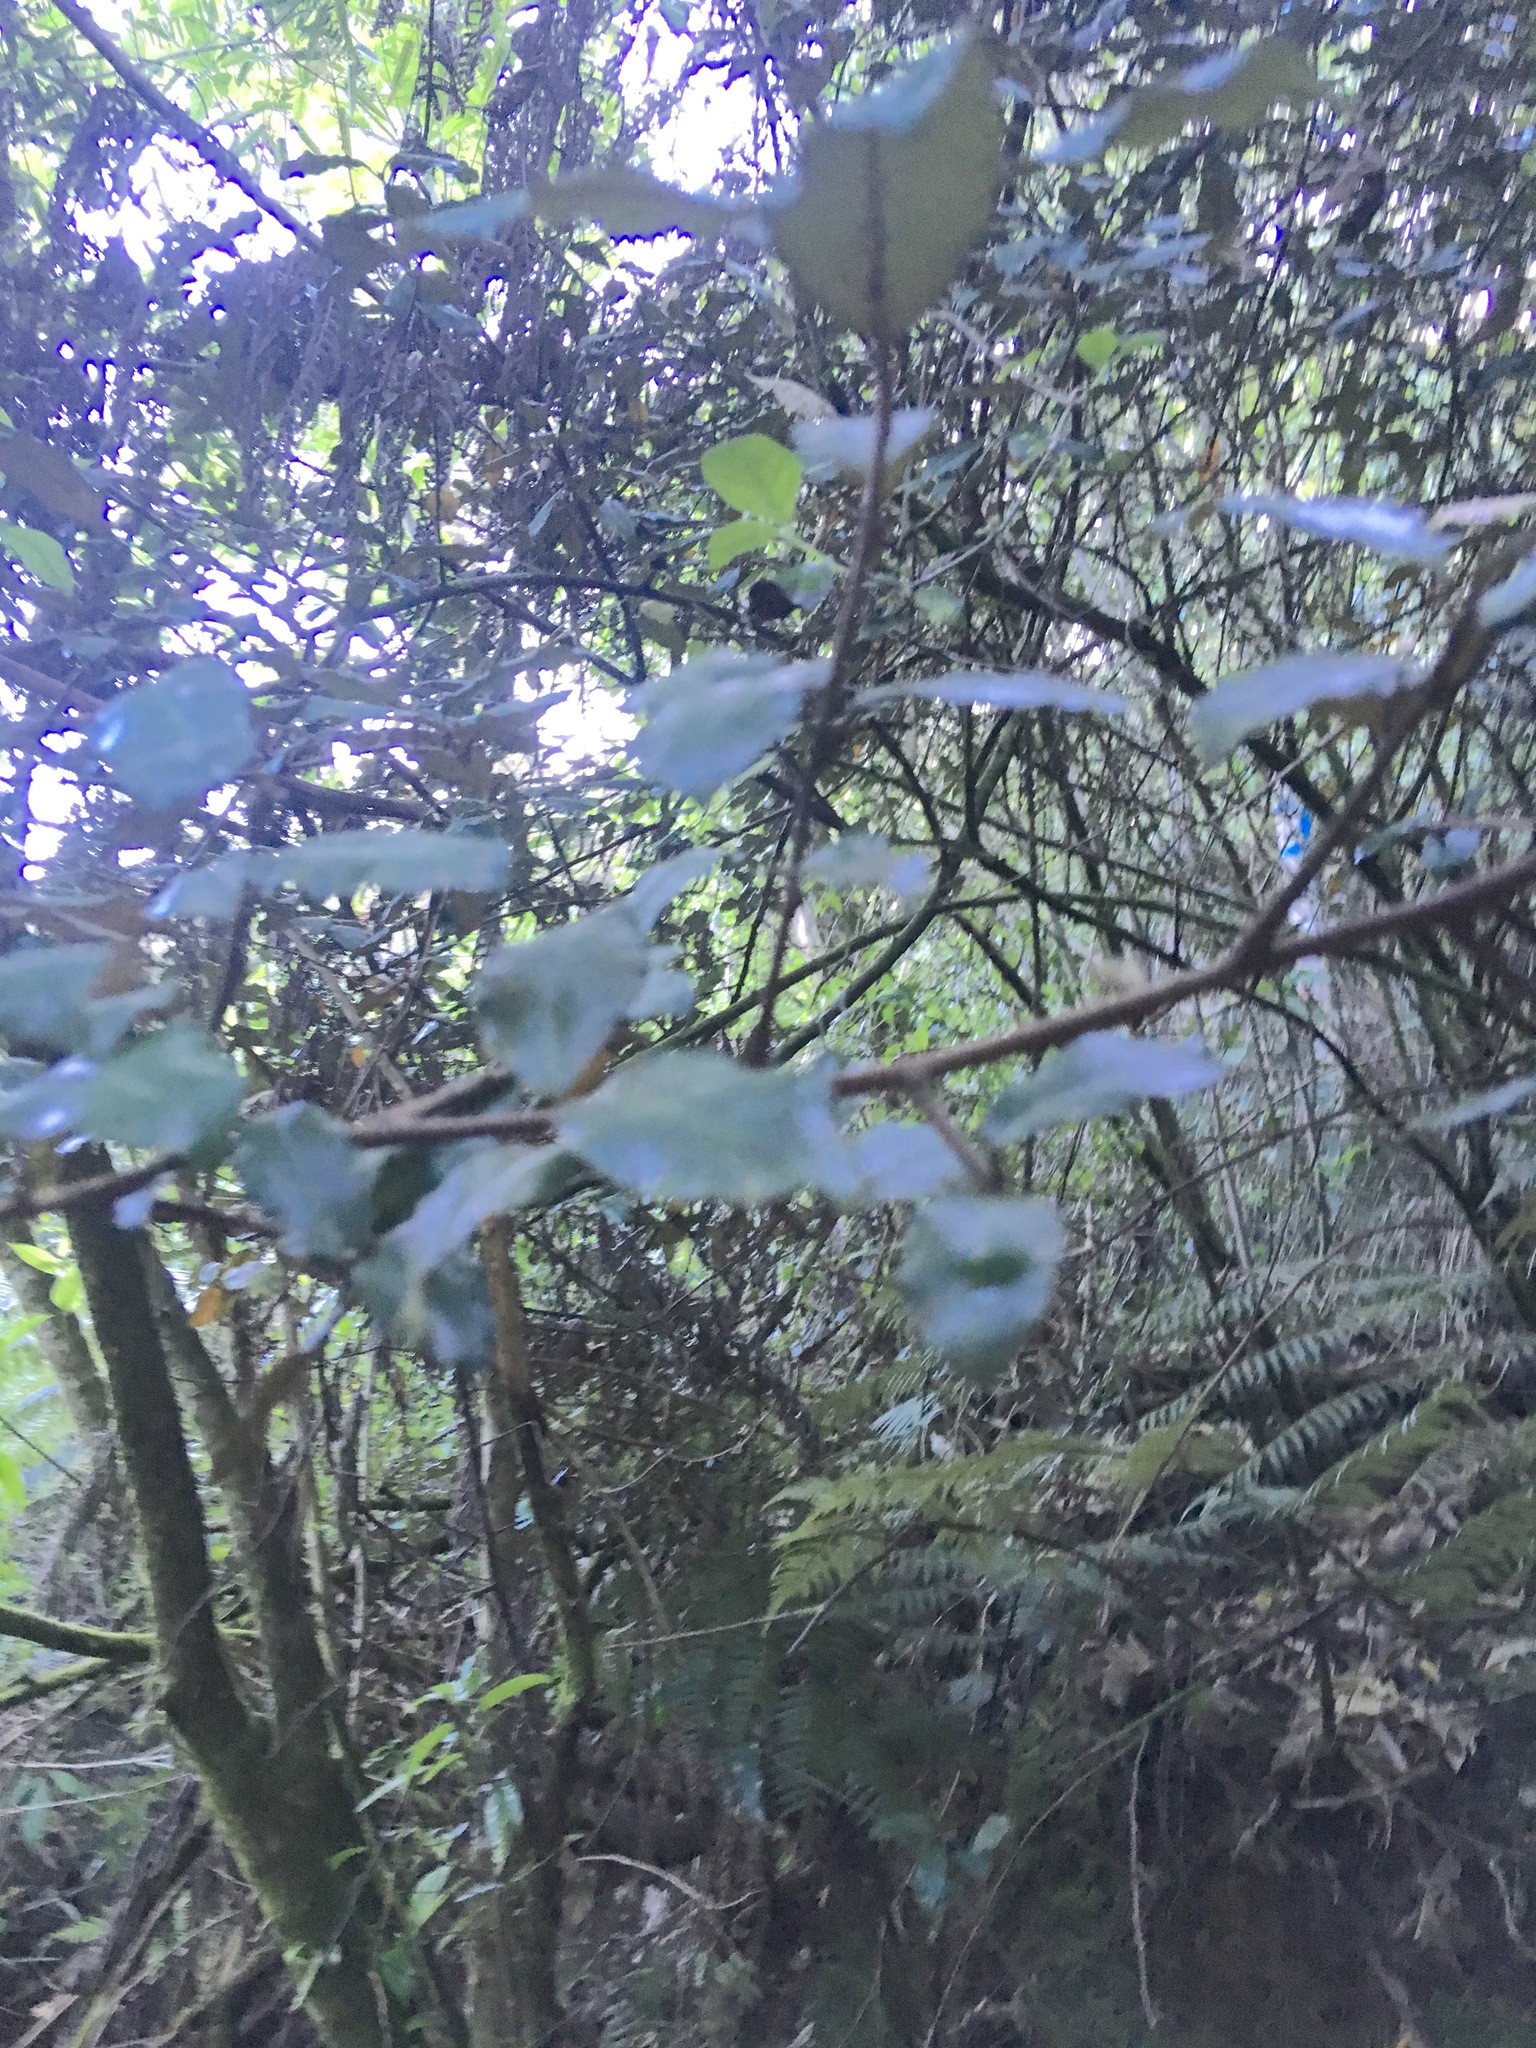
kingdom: Plantae
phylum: Tracheophyta
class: Magnoliopsida
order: Rosales
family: Elaeagnaceae
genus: Elaeagnus
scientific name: Elaeagnus reflexa
